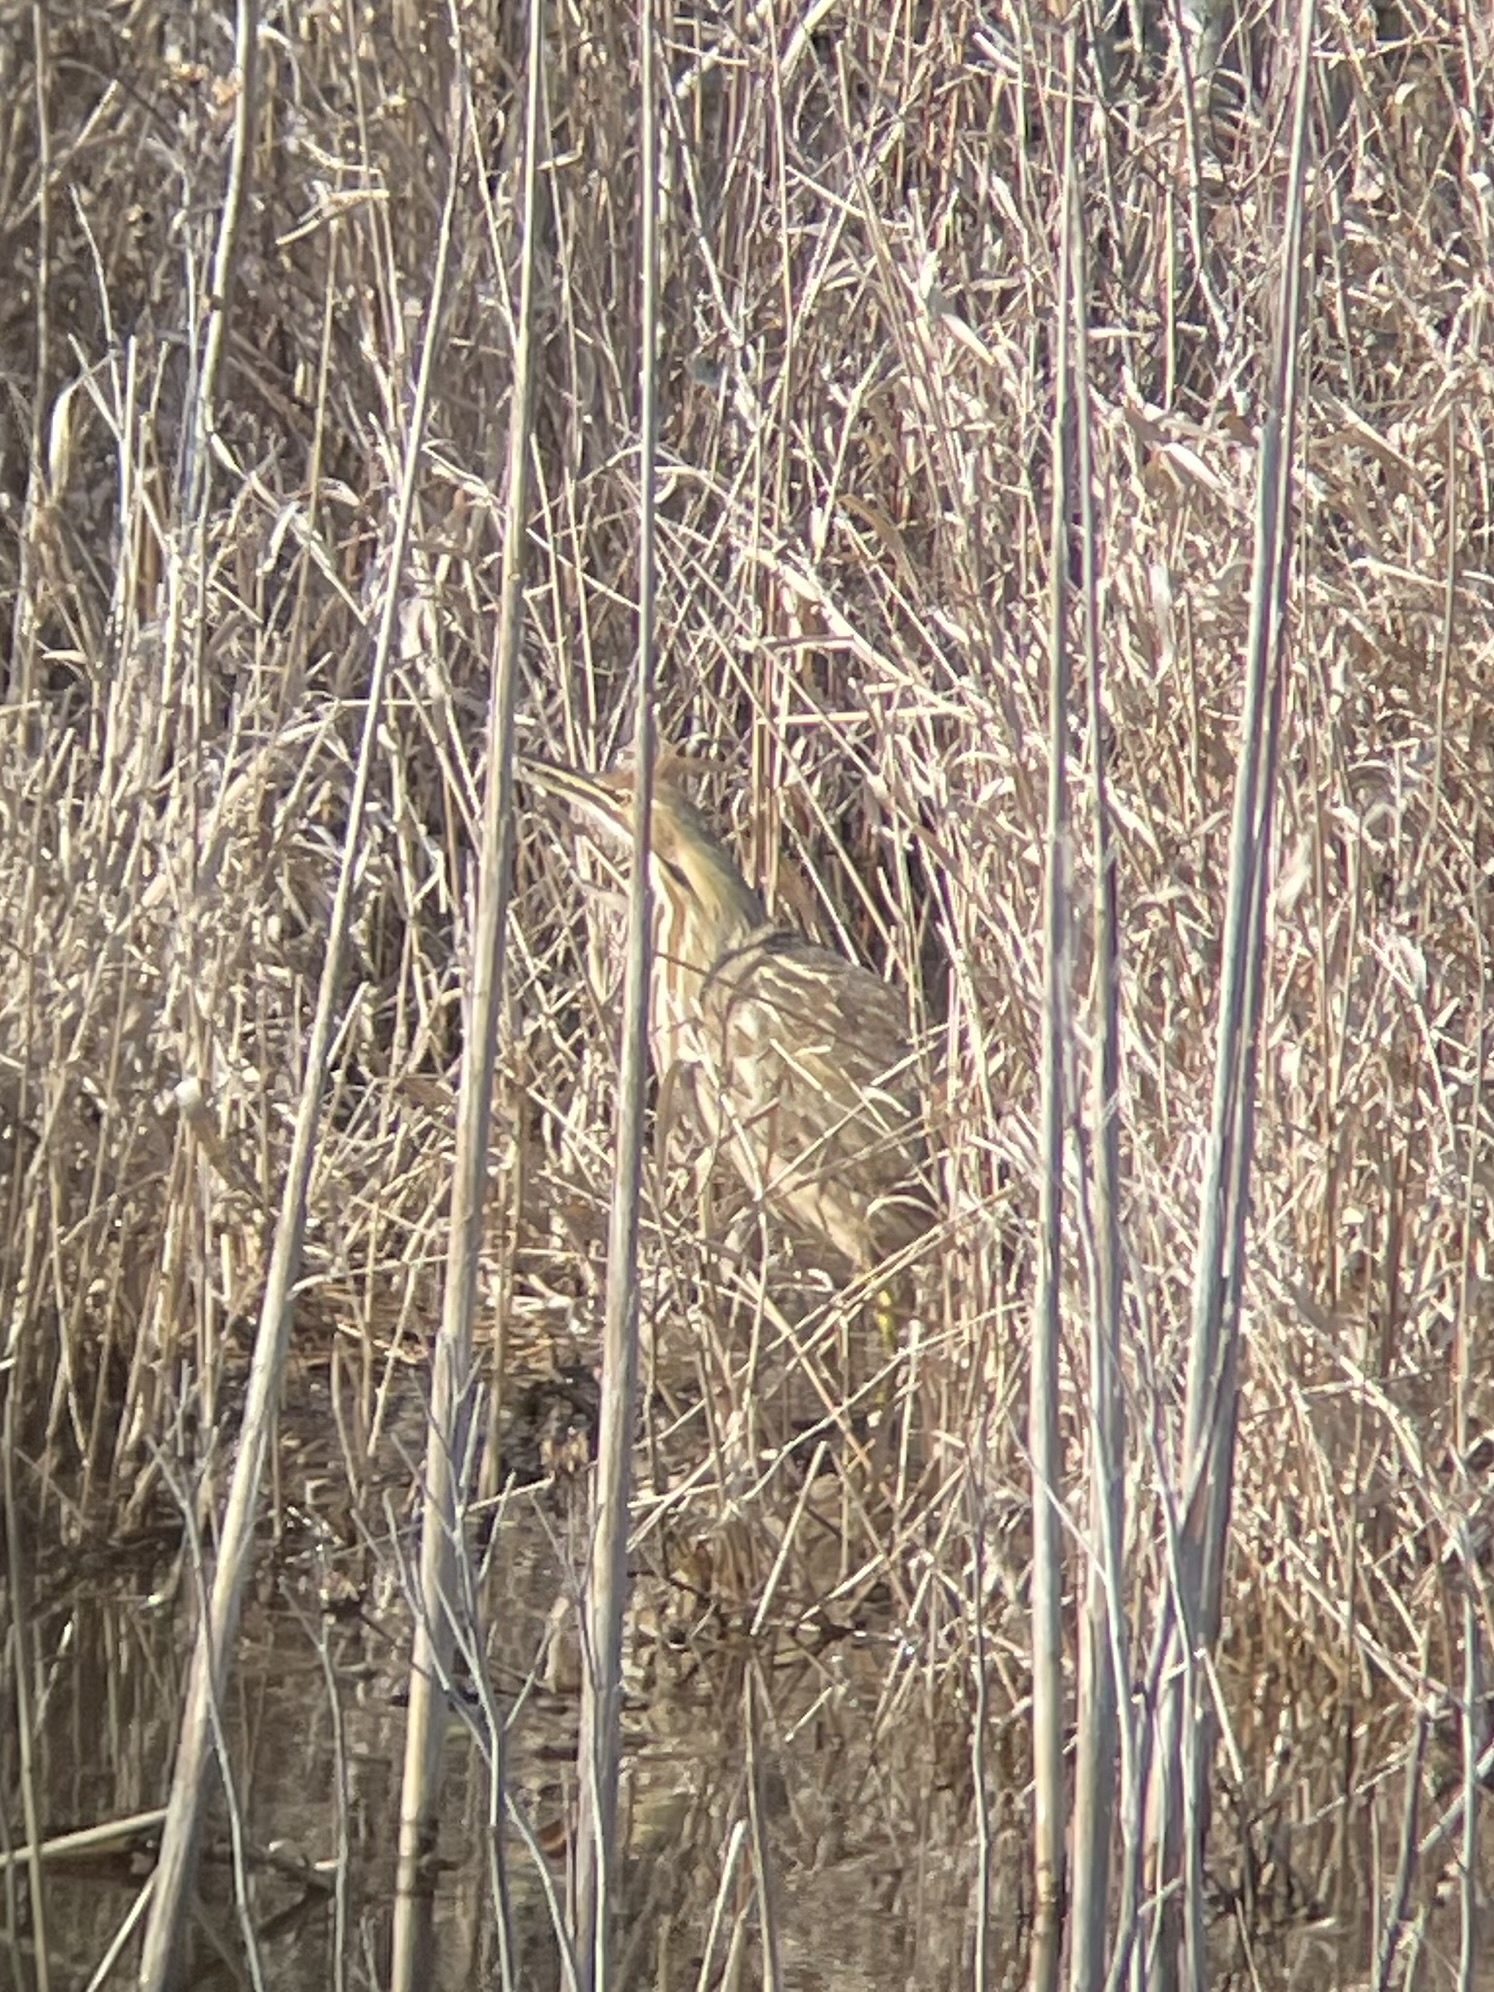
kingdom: Animalia
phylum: Chordata
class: Aves
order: Pelecaniformes
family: Ardeidae
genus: Botaurus
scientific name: Botaurus lentiginosus
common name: American bittern
